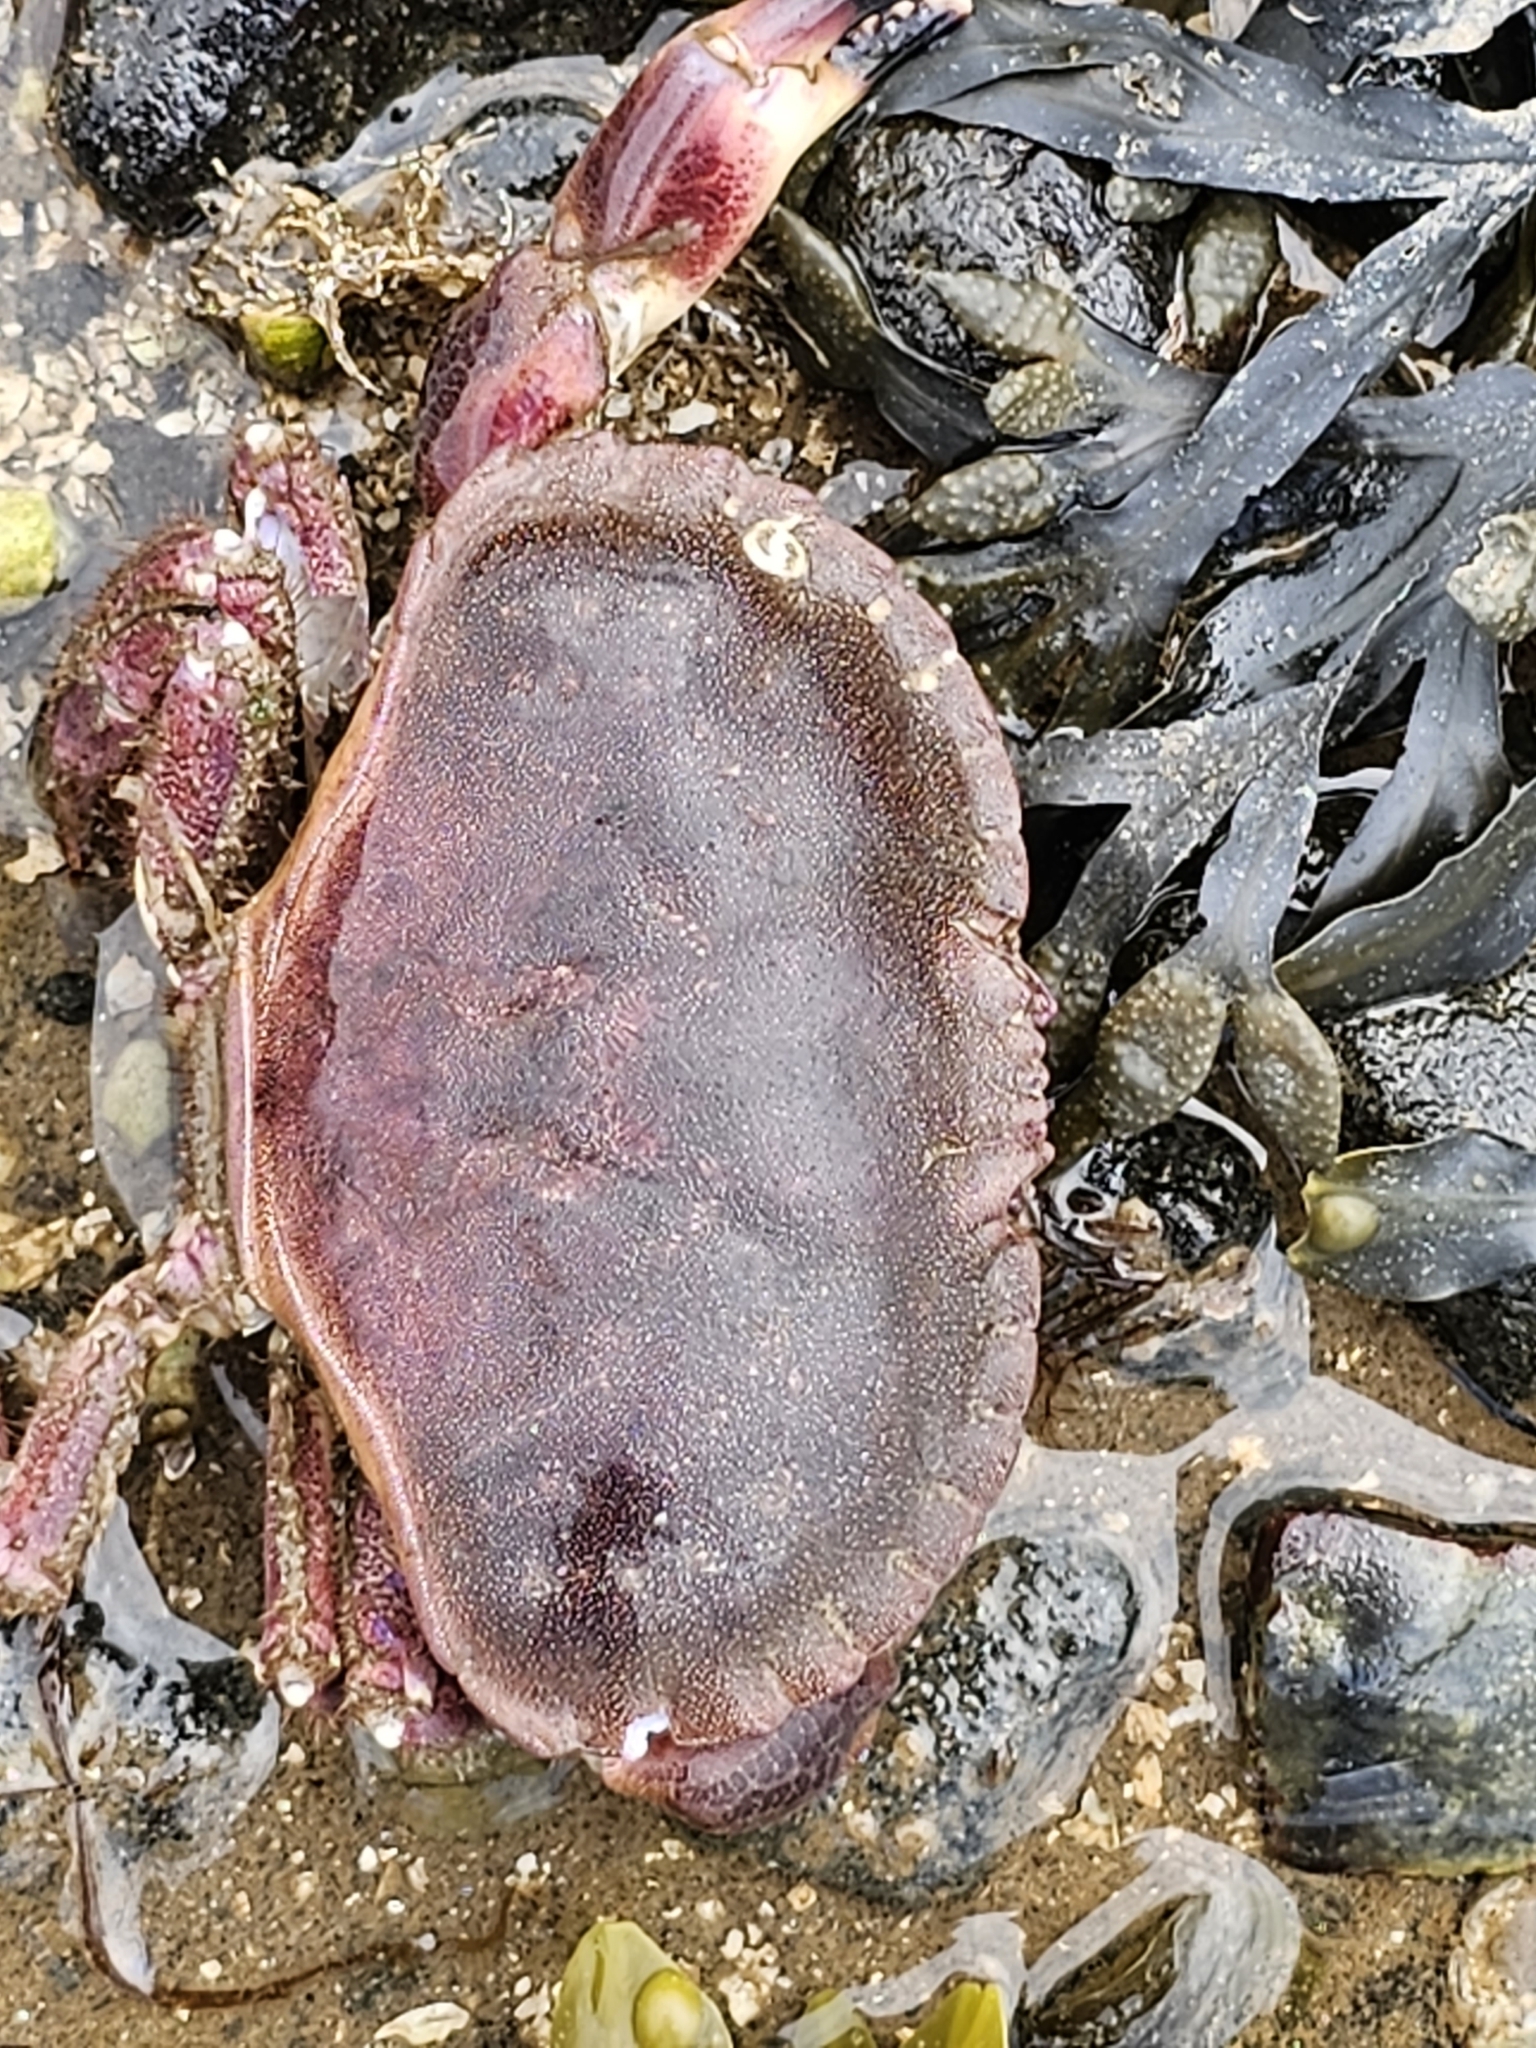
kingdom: Animalia
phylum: Arthropoda
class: Malacostraca
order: Decapoda
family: Cancridae
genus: Cancer
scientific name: Cancer pagurus
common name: Edible crab
